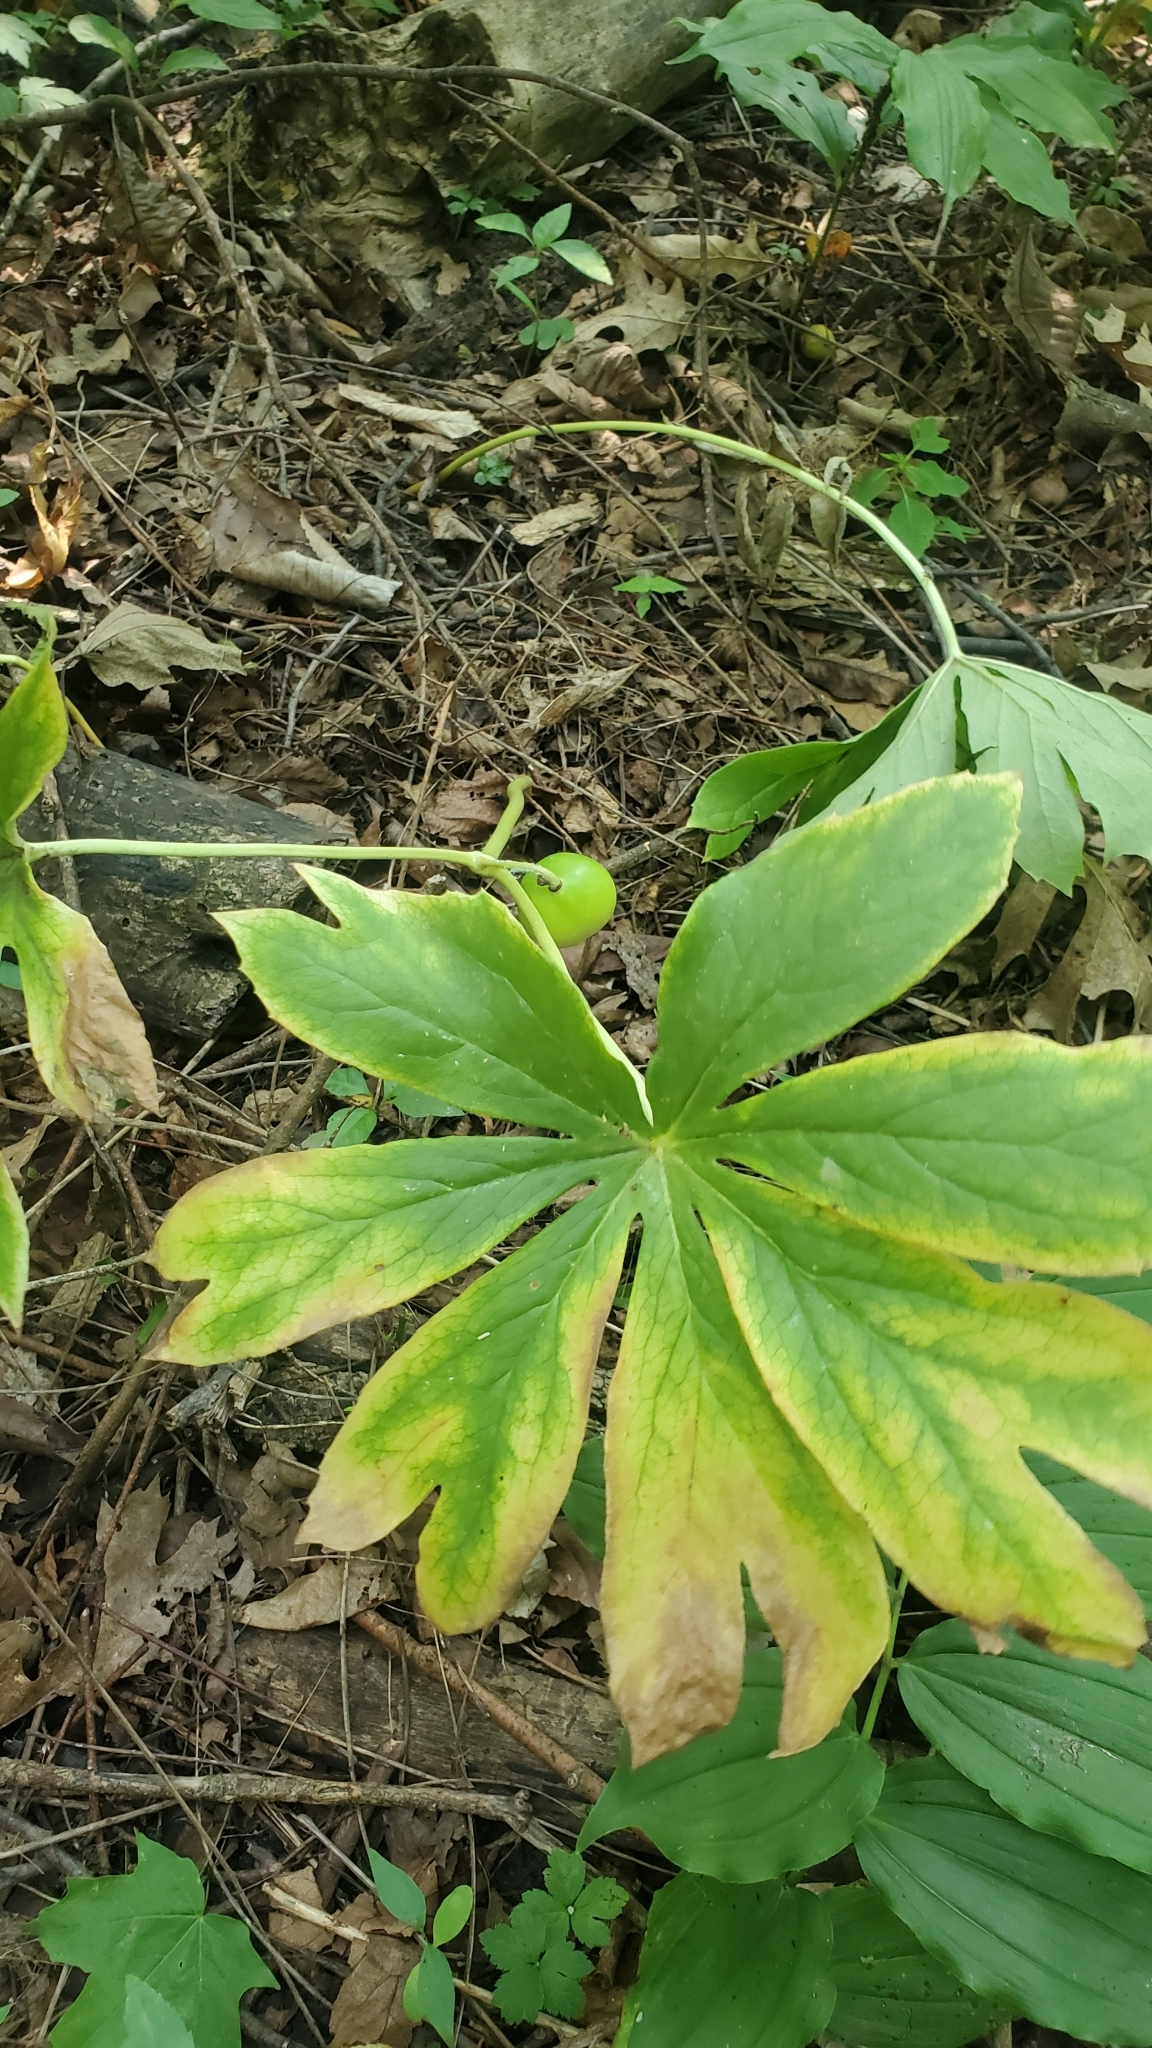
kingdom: Plantae
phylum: Tracheophyta
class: Magnoliopsida
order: Ranunculales
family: Berberidaceae
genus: Podophyllum
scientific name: Podophyllum peltatum
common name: Wild mandrake
